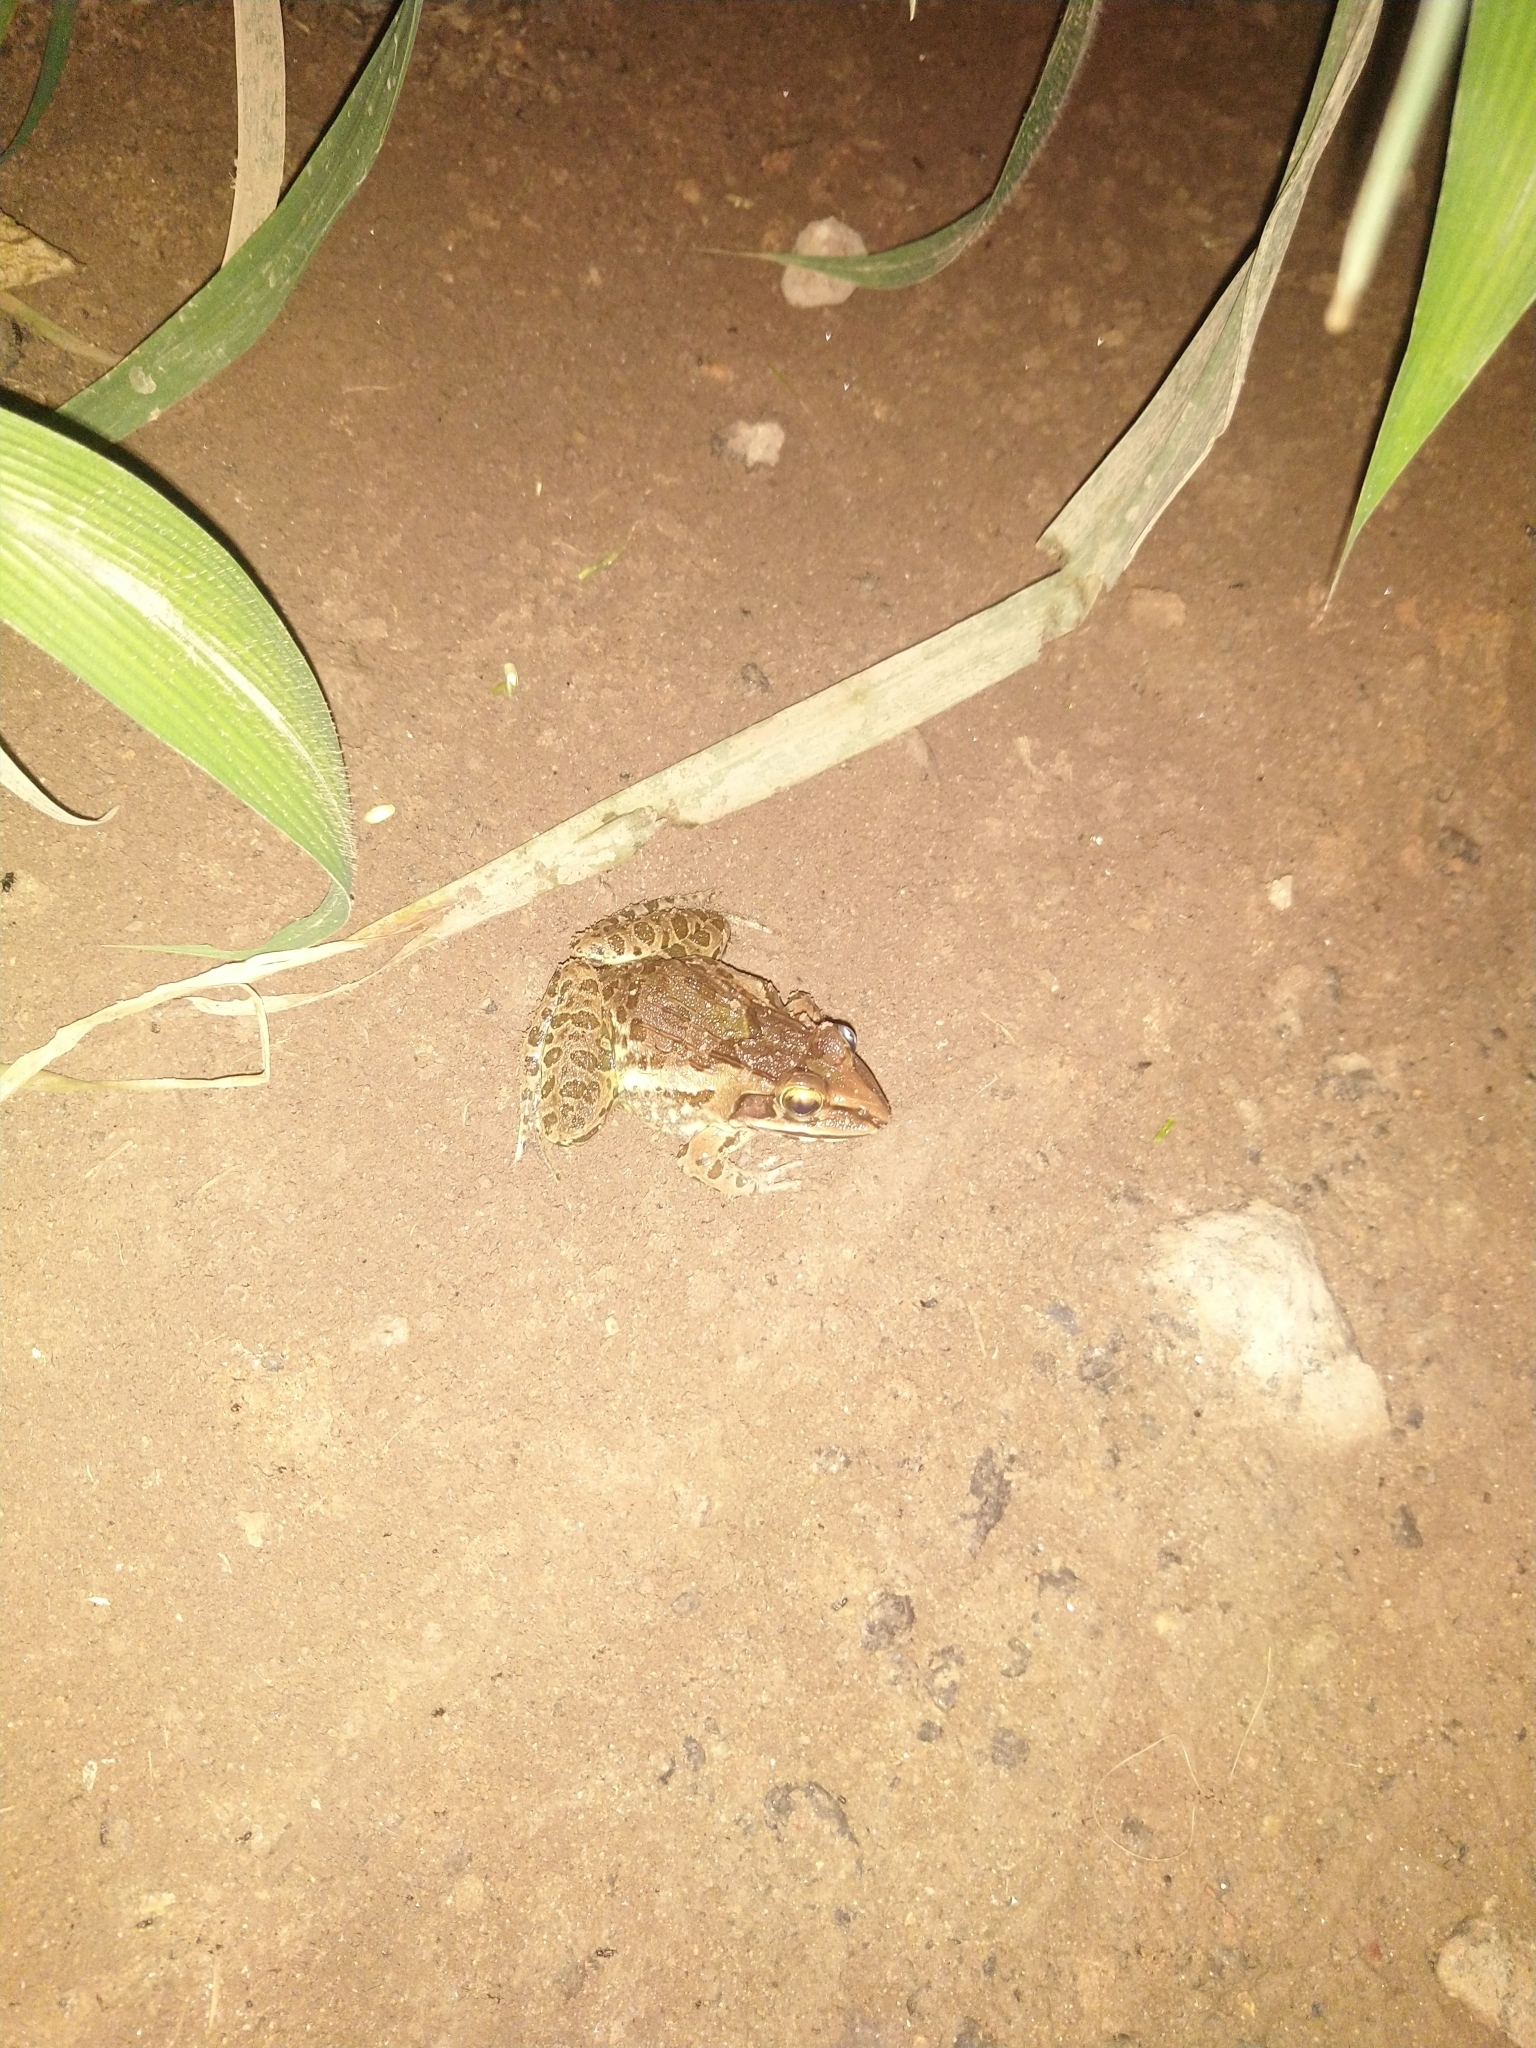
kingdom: Animalia
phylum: Chordata
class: Amphibia
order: Anura
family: Dicroglossidae
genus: Hoplobatrachus
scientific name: Hoplobatrachus tigerinus
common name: Indian bullfrog
